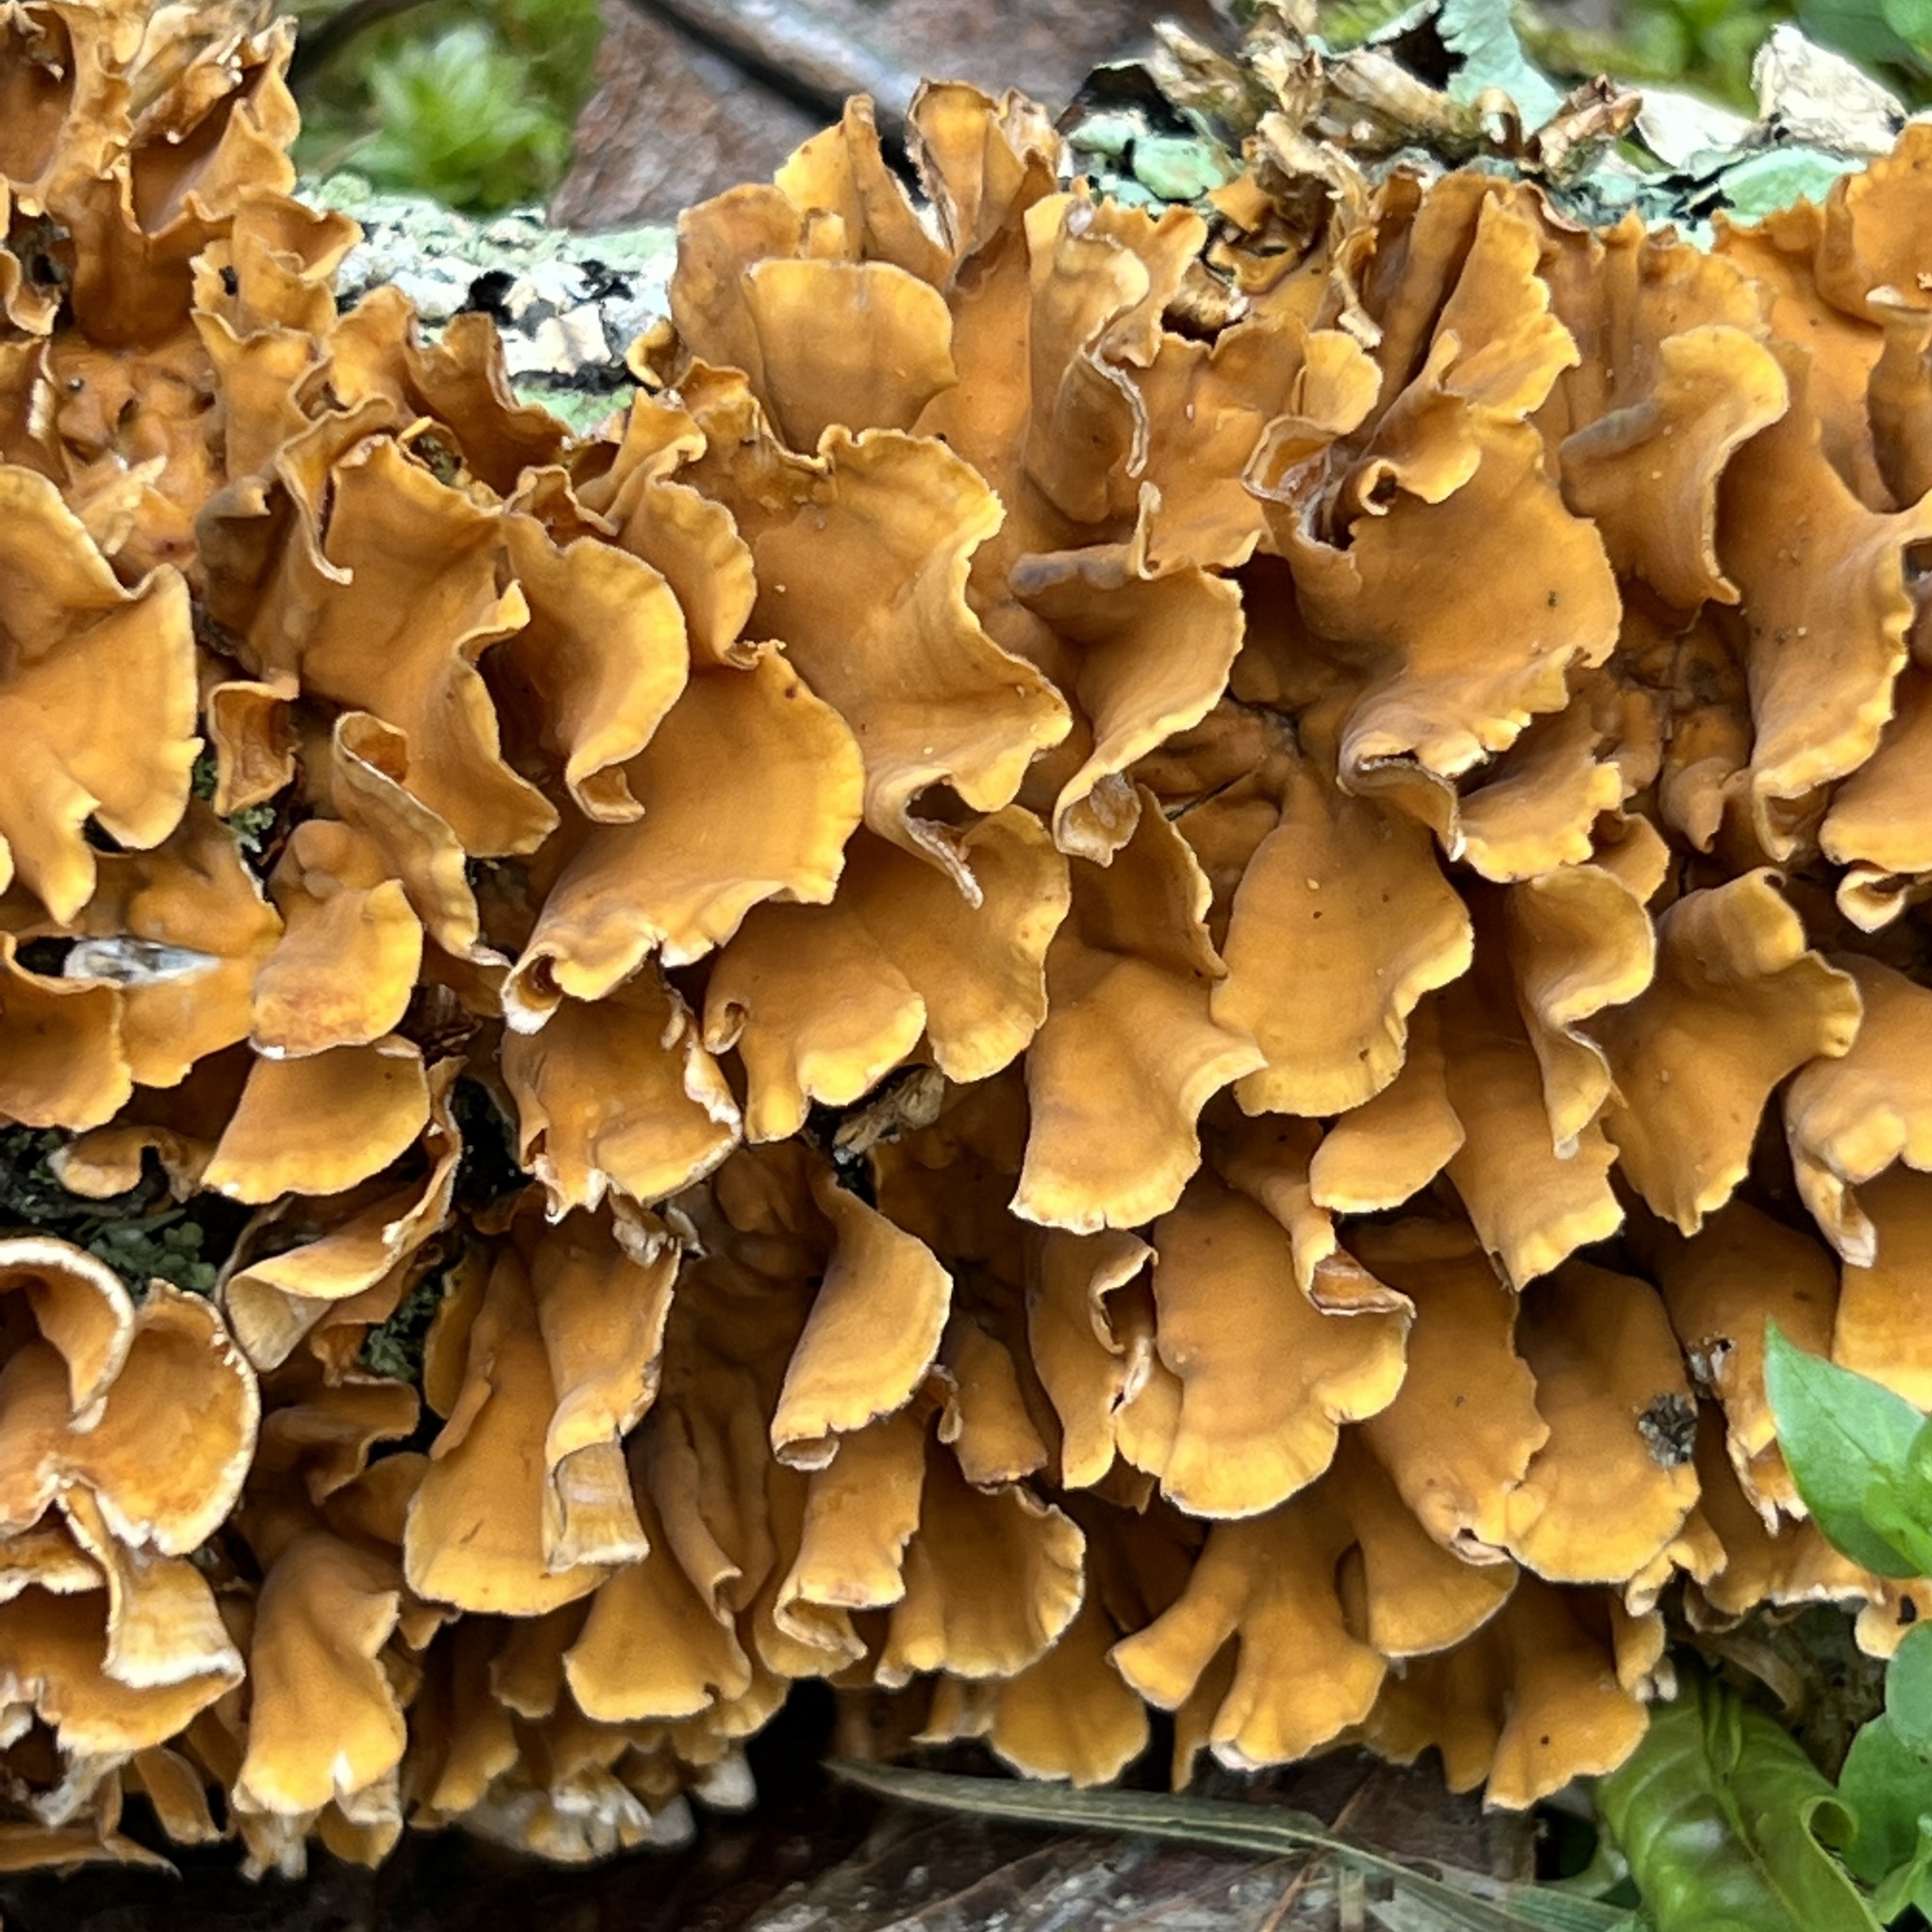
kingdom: Fungi
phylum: Basidiomycota
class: Agaricomycetes
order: Russulales
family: Stereaceae
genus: Stereum
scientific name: Stereum complicatum
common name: Crowded parchment
